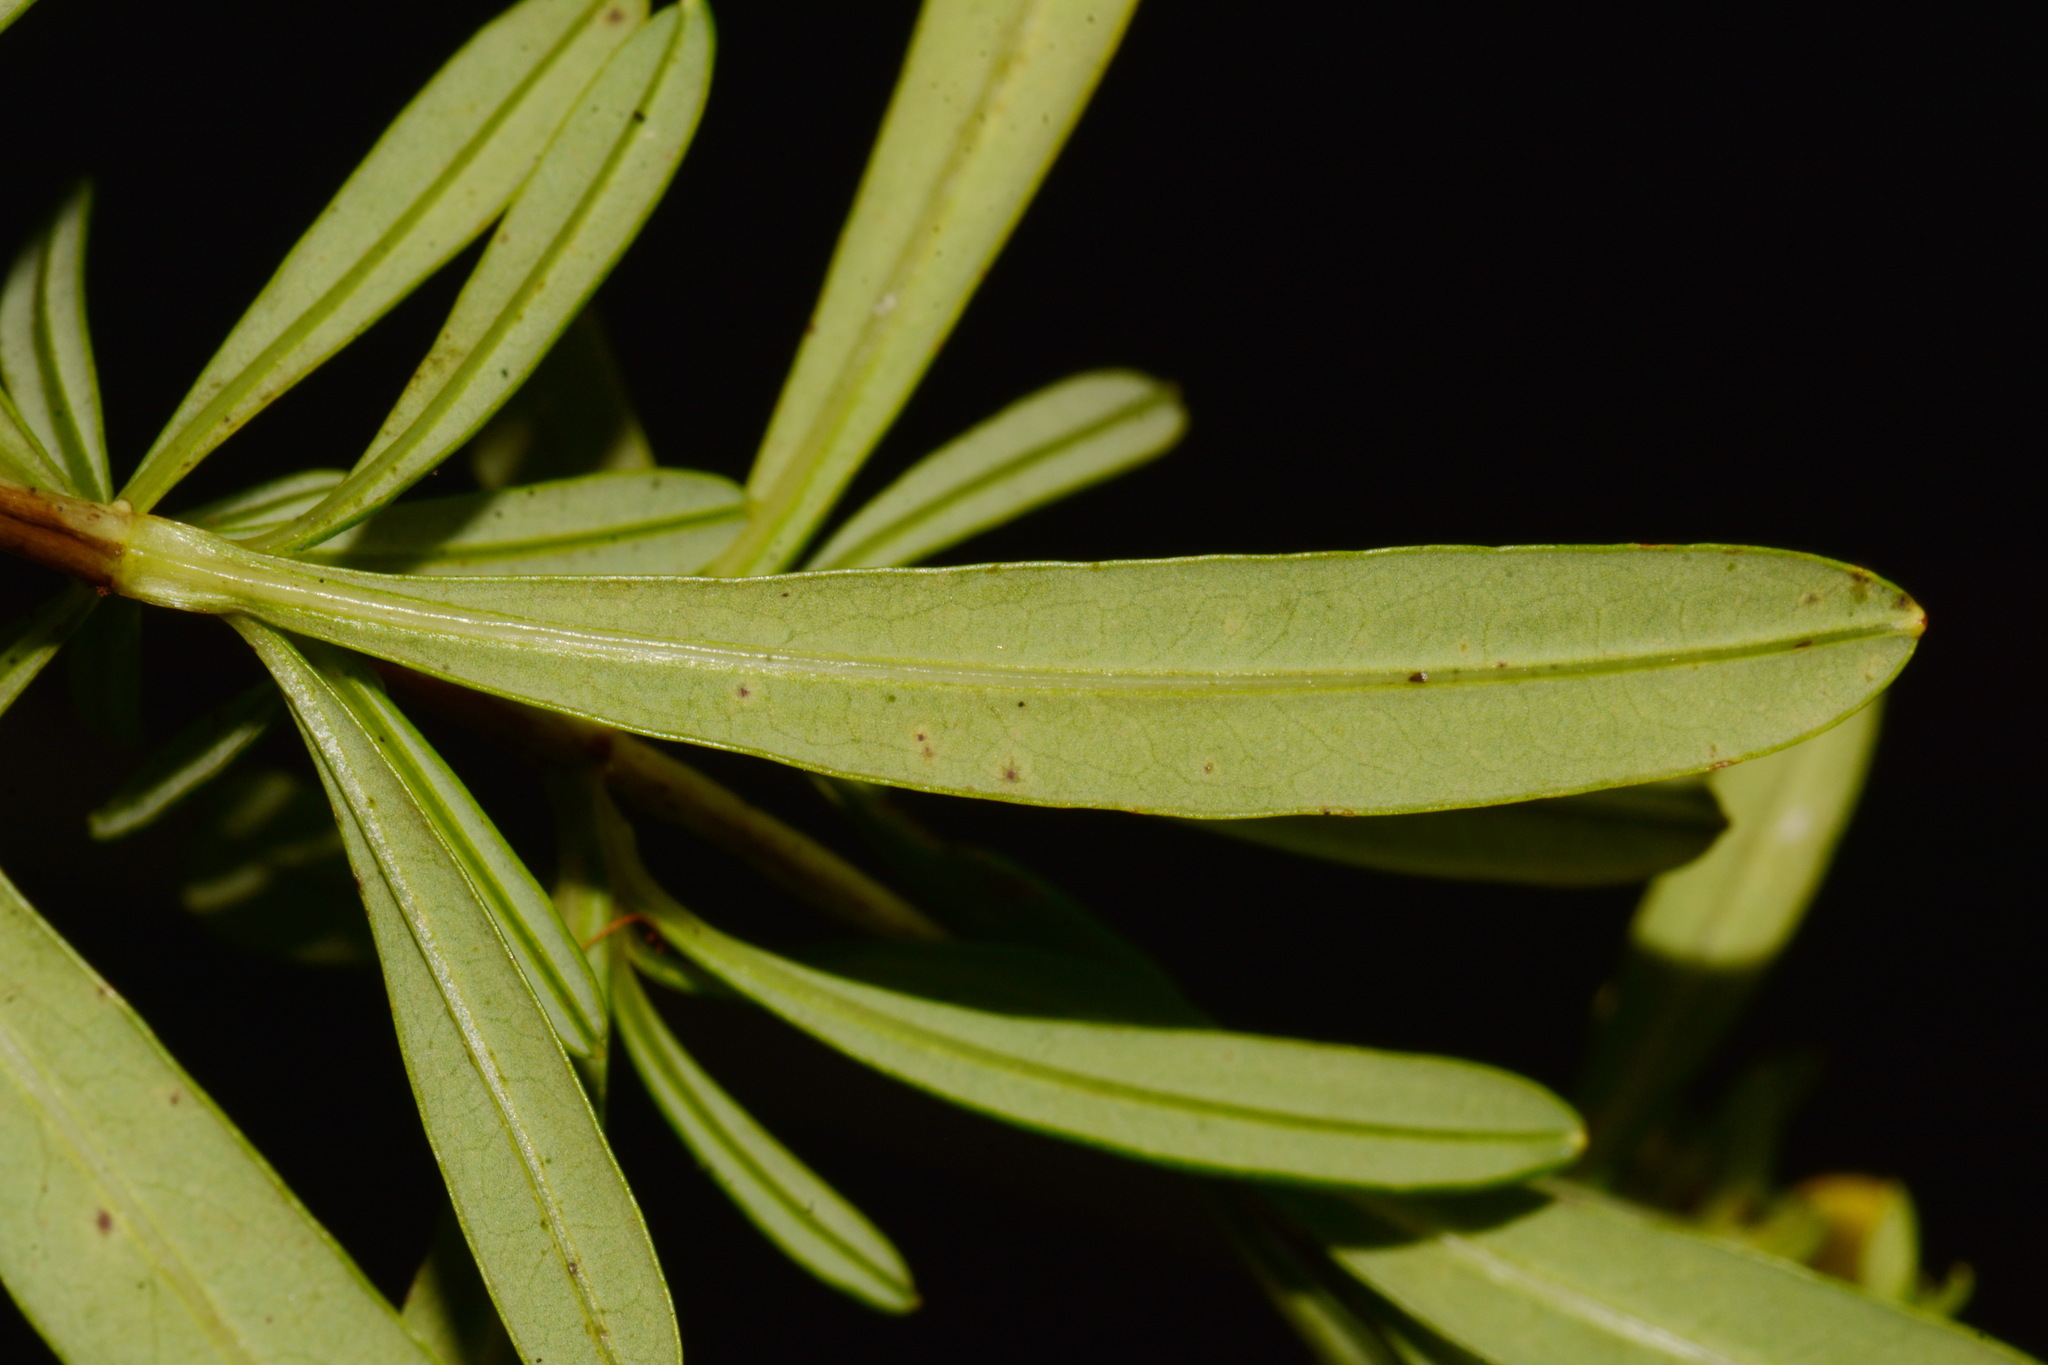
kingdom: Plantae
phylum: Tracheophyta
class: Magnoliopsida
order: Malpighiales
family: Hypericaceae
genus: Hypericum
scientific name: Hypericum densiflorum
